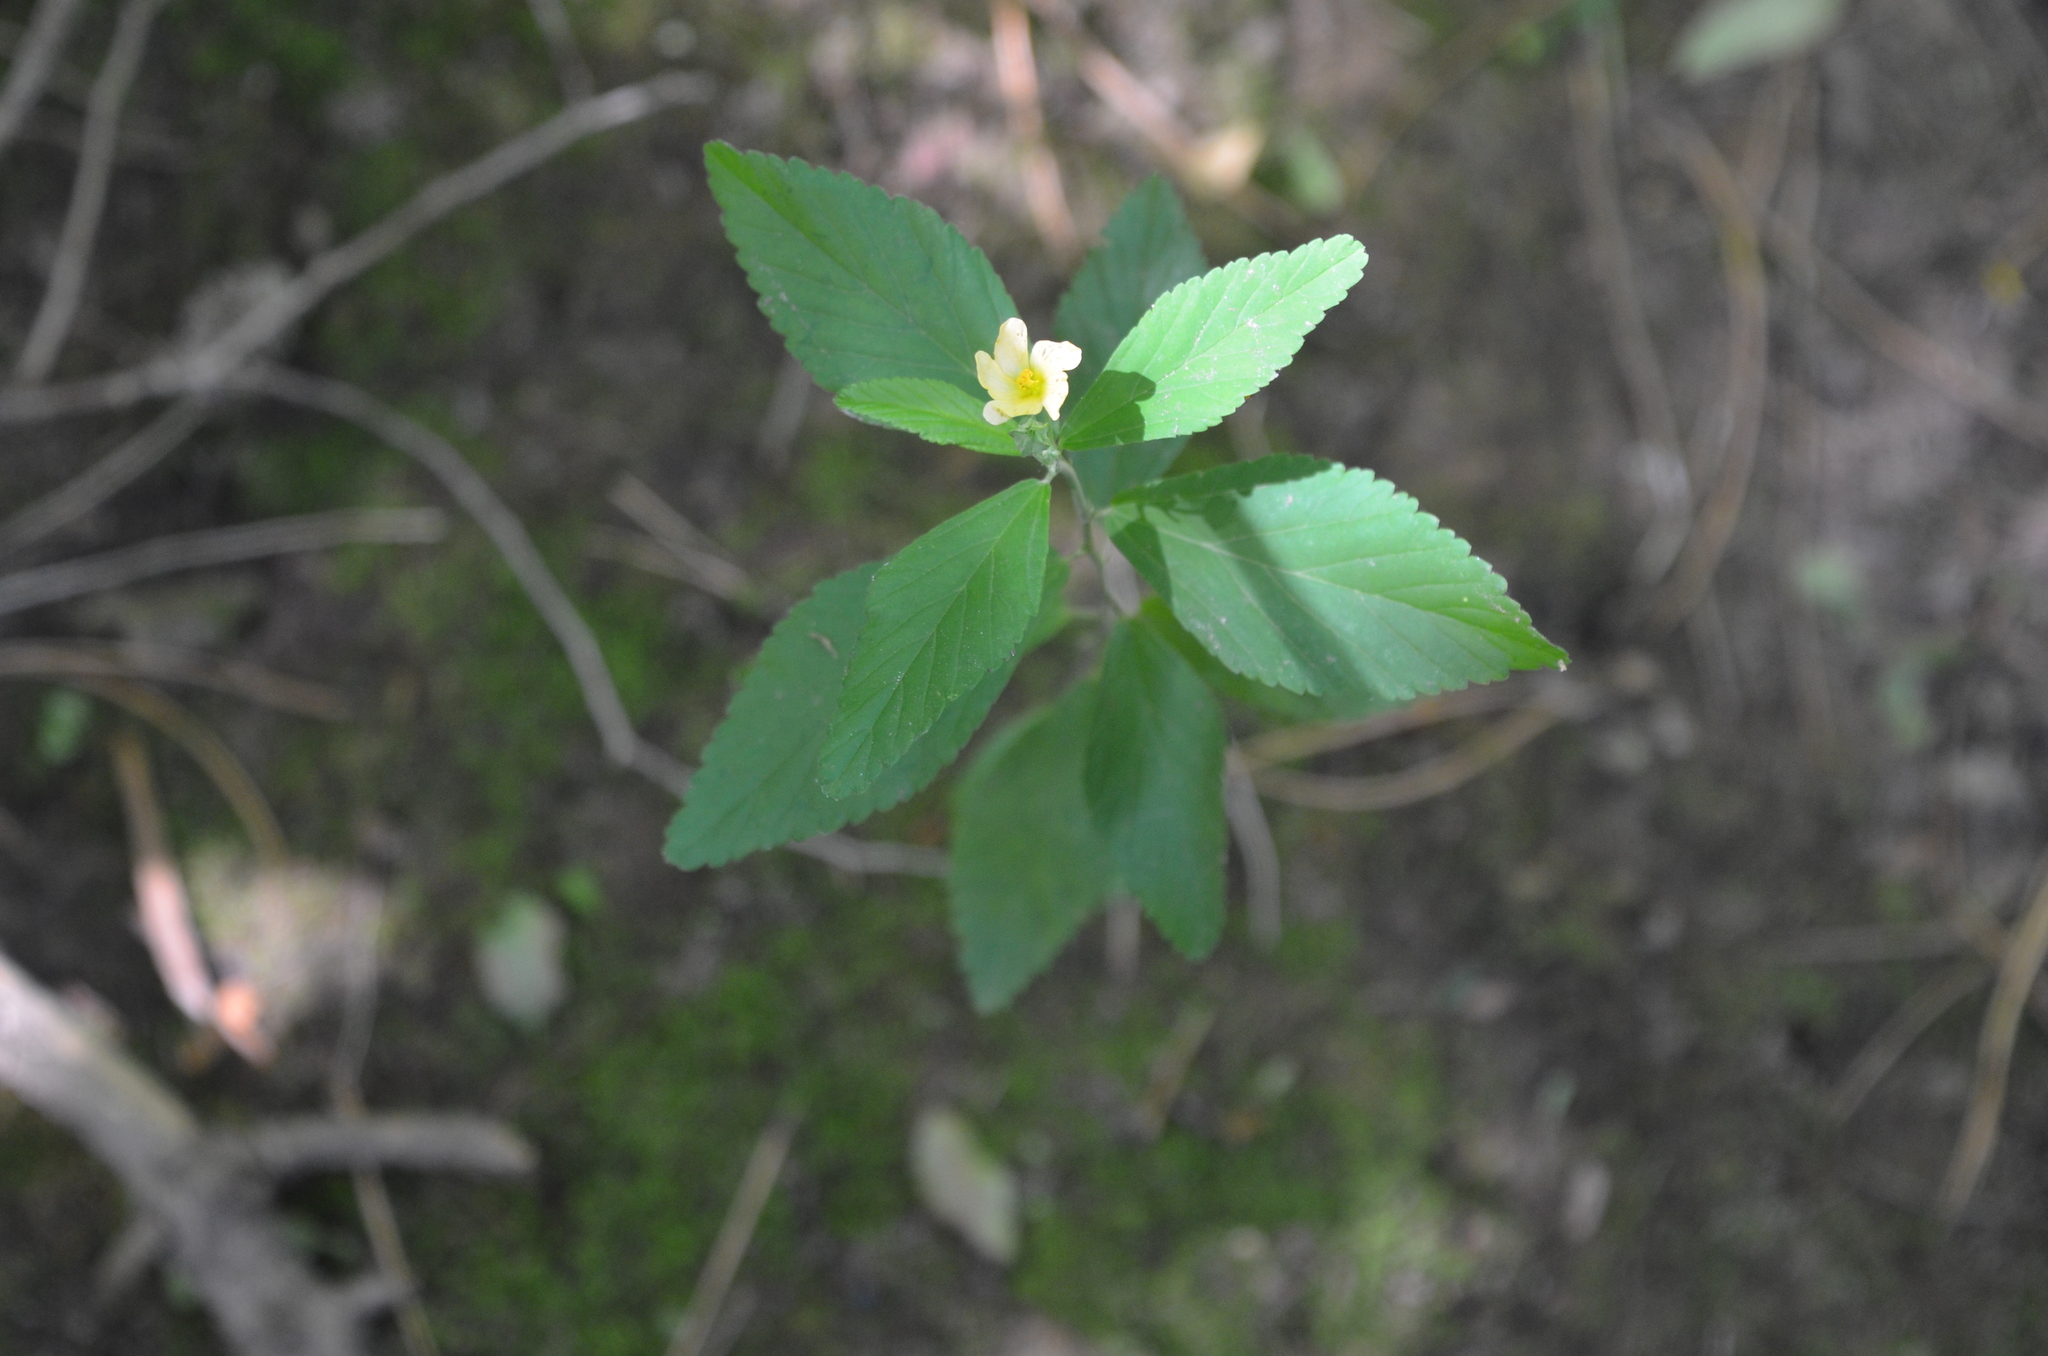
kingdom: Plantae
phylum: Tracheophyta
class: Magnoliopsida
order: Malvales
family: Malvaceae
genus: Sida
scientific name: Sida rhombifolia
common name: Queensland-hemp
